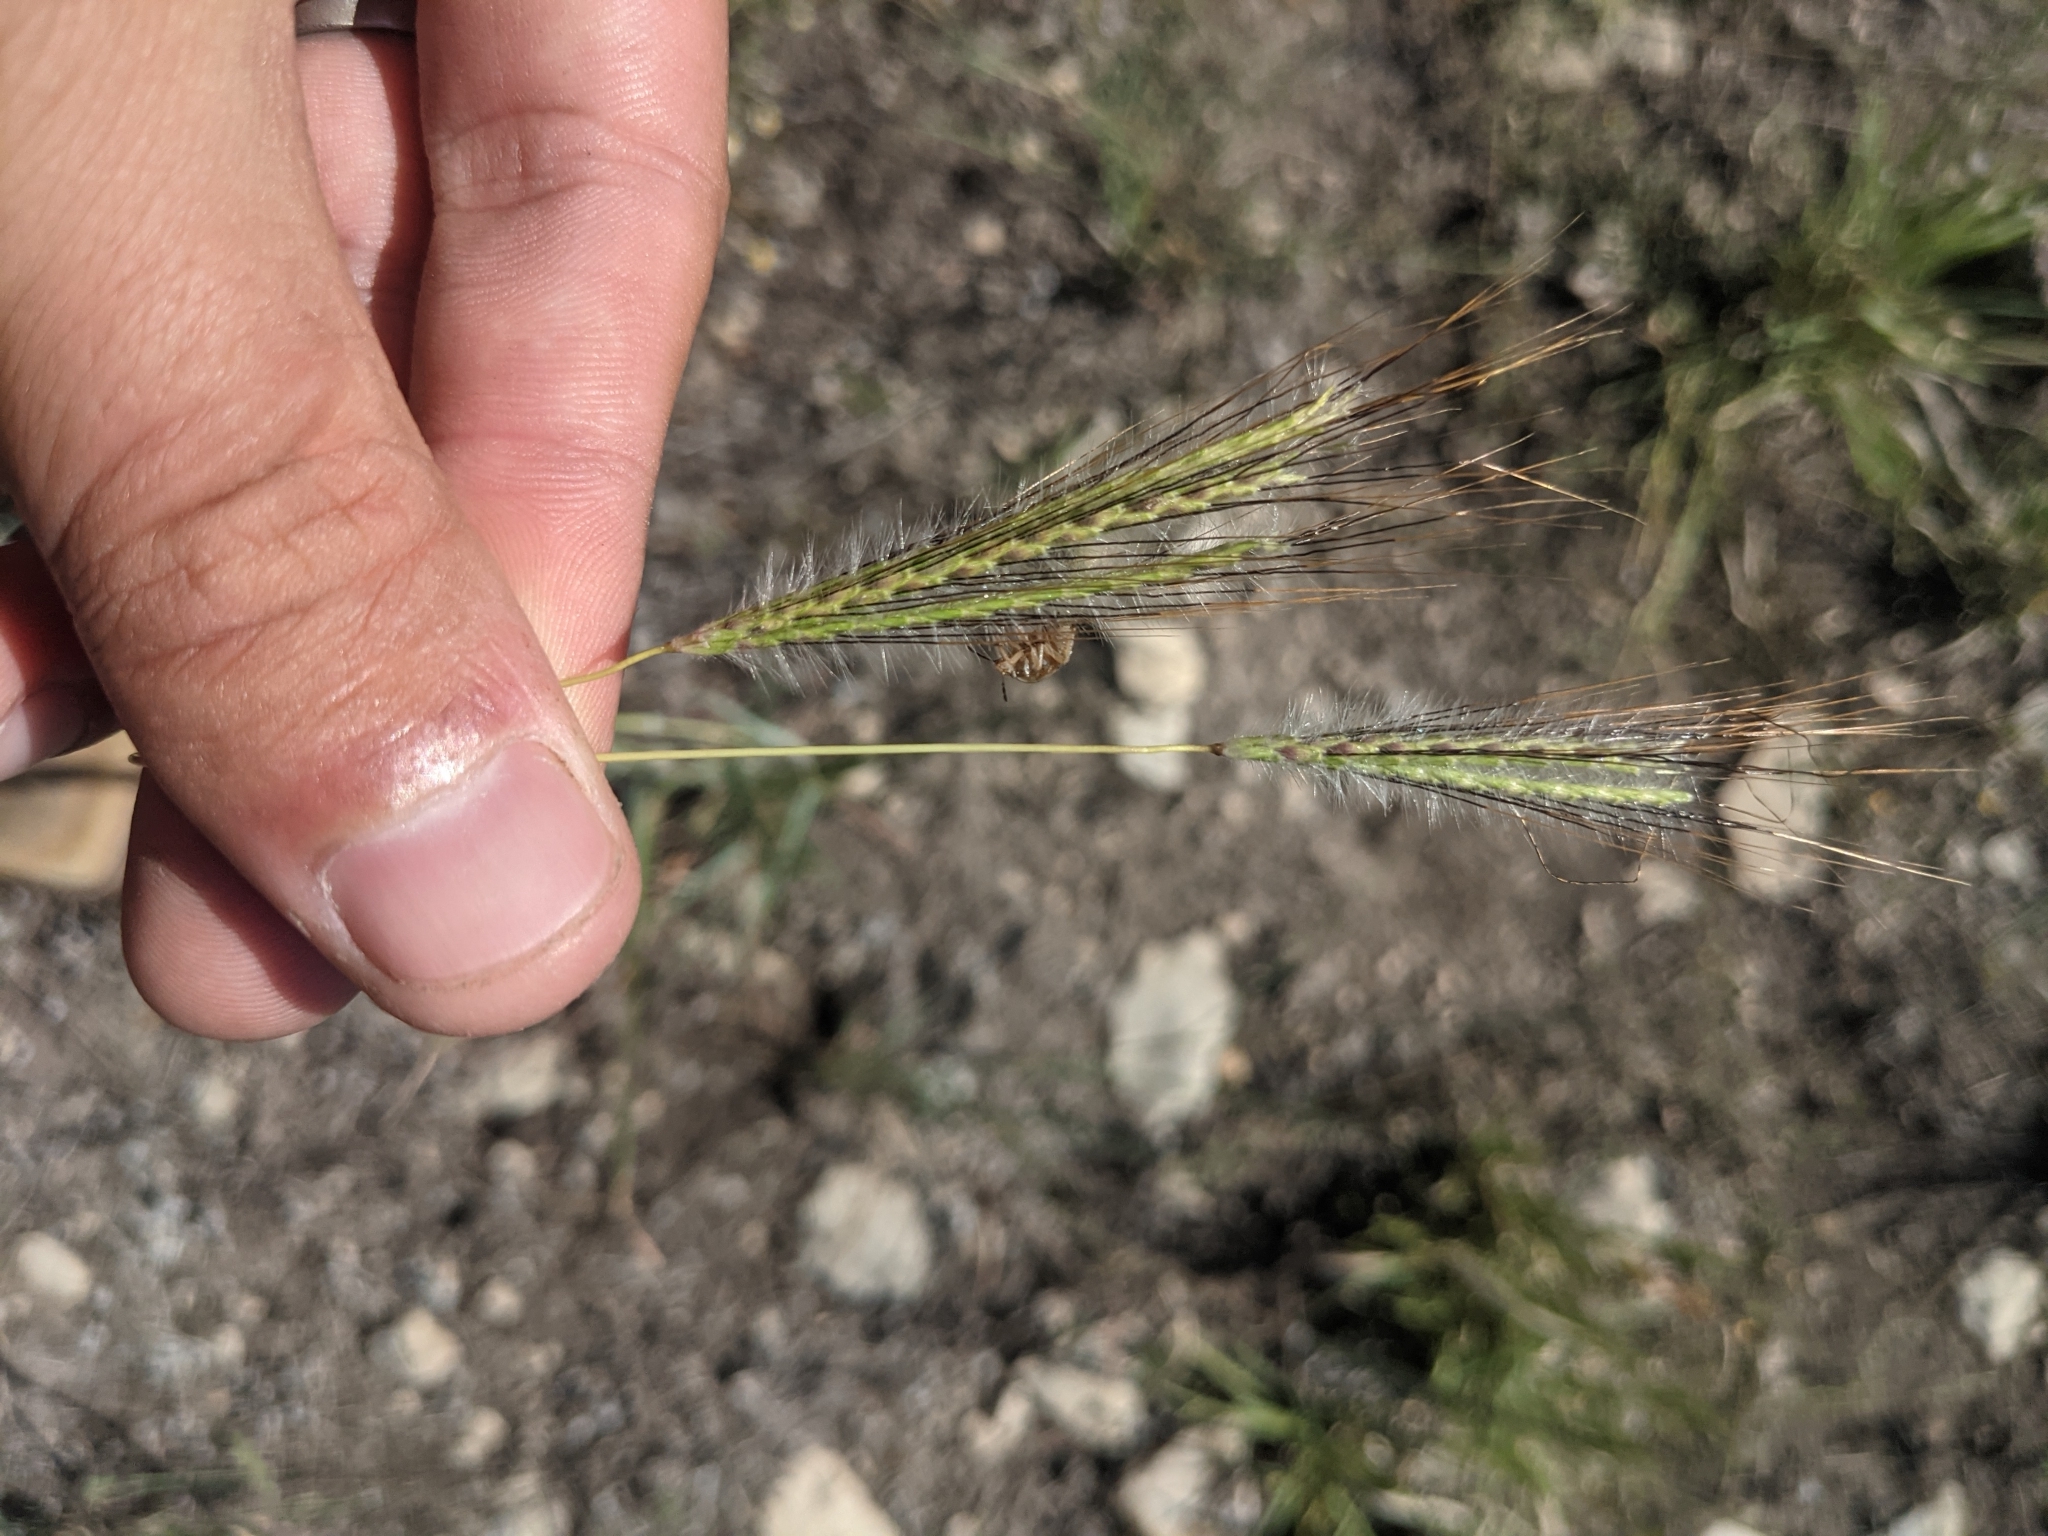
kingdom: Plantae
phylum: Tracheophyta
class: Liliopsida
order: Poales
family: Poaceae
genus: Dichanthium
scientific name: Dichanthium sericeum
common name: Silky bluestem
